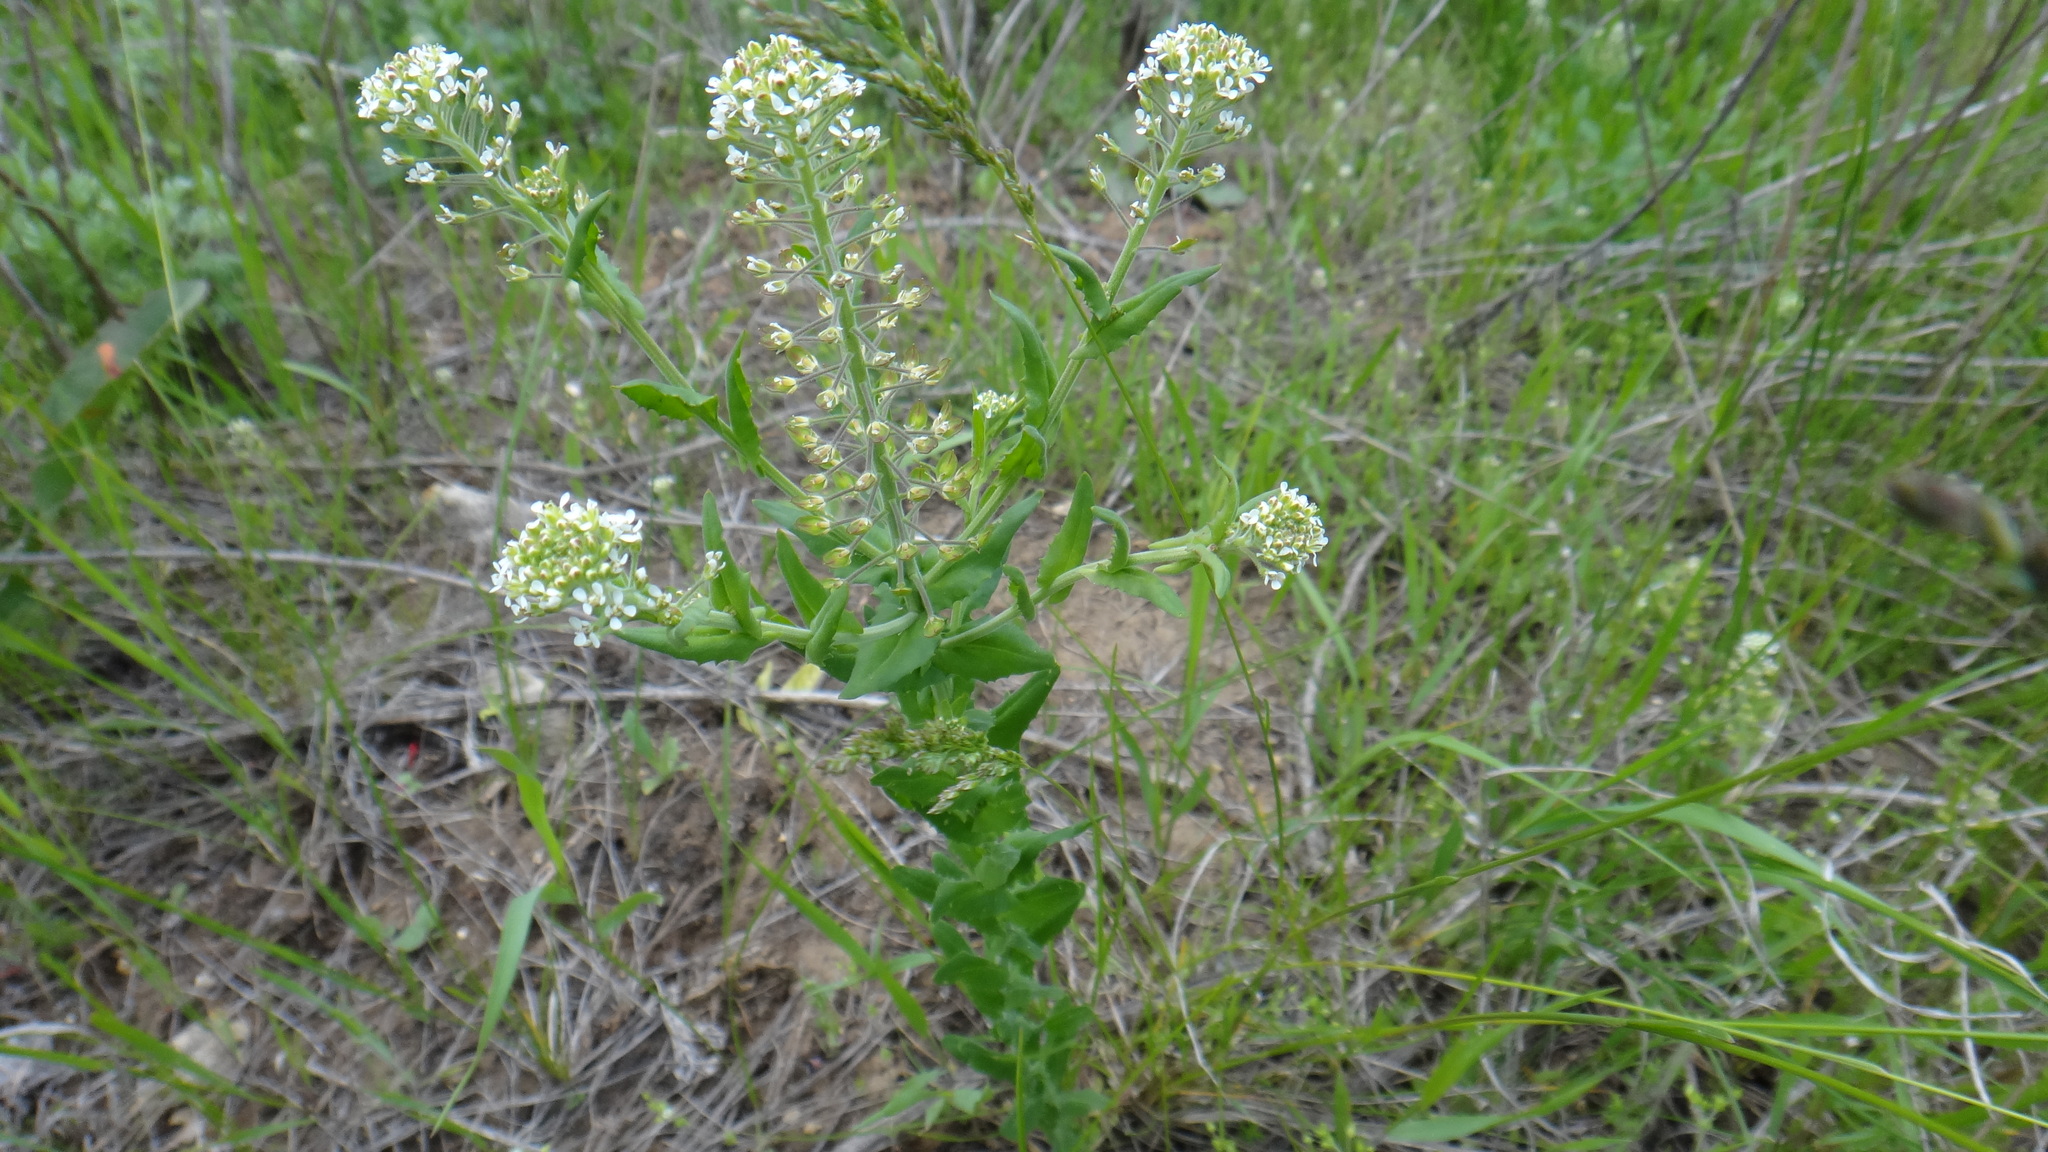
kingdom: Plantae
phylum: Tracheophyta
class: Magnoliopsida
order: Brassicales
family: Brassicaceae
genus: Lepidium
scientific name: Lepidium campestre
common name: Field pepperwort
